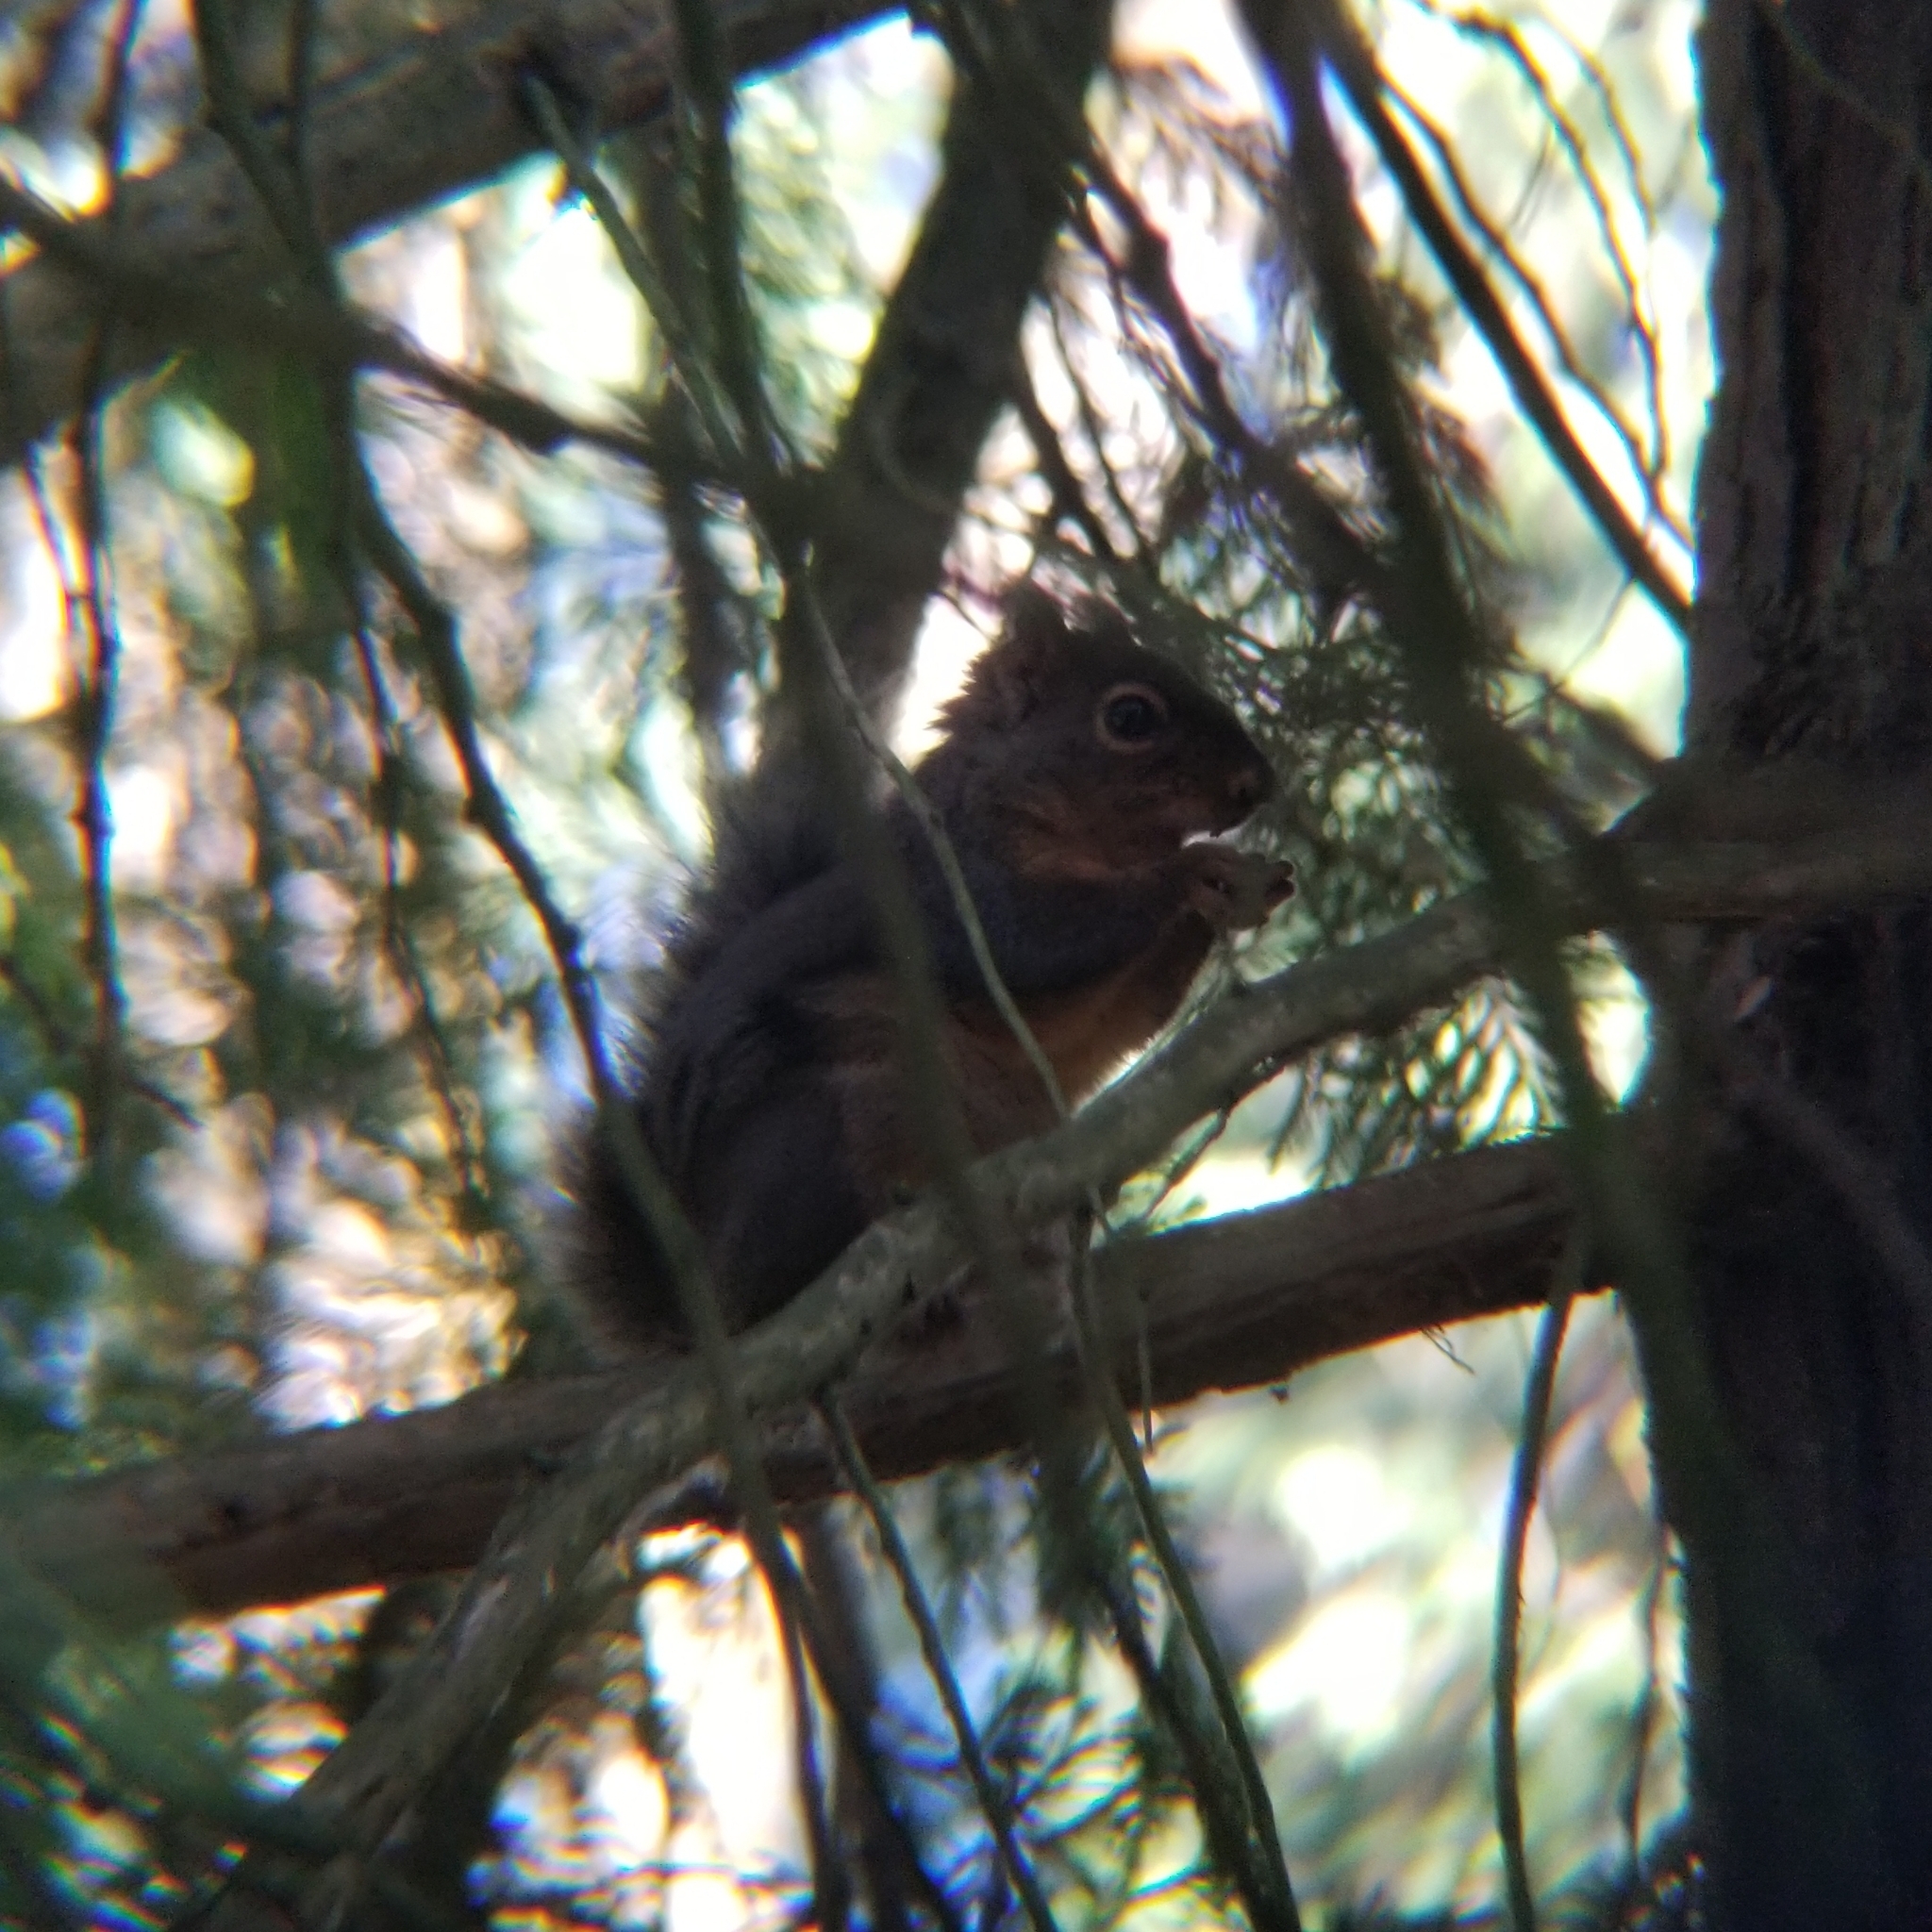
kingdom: Animalia
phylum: Chordata
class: Mammalia
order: Rodentia
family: Sciuridae
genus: Tamiasciurus
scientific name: Tamiasciurus douglasii
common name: Douglas's squirrel
